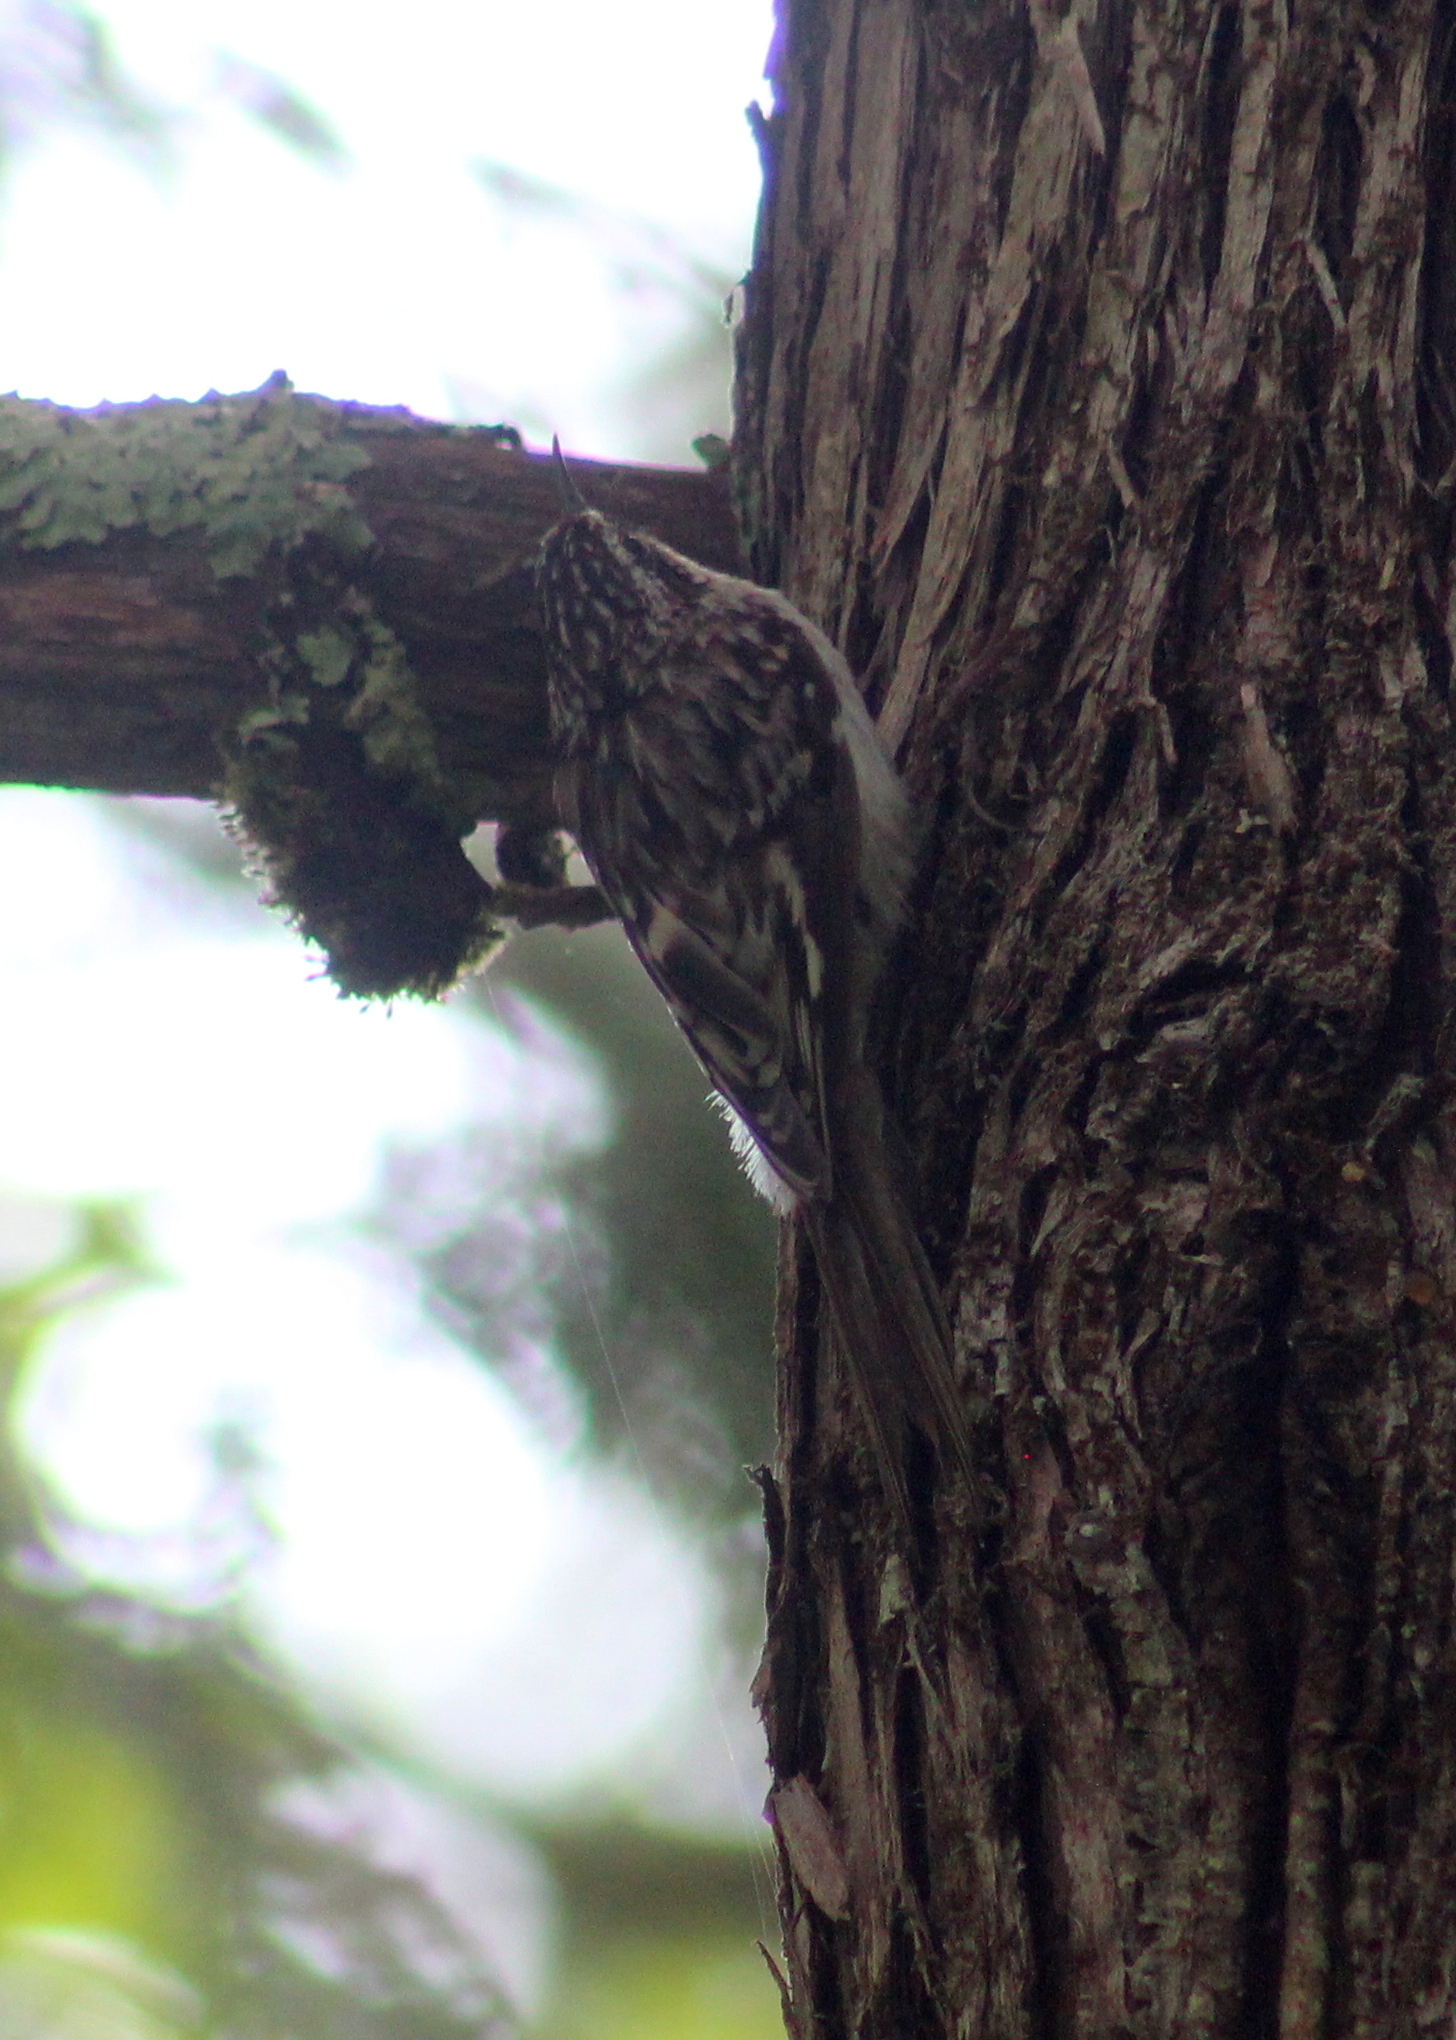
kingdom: Animalia
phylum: Chordata
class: Aves
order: Passeriformes
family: Certhiidae
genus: Certhia
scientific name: Certhia americana
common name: Brown creeper
